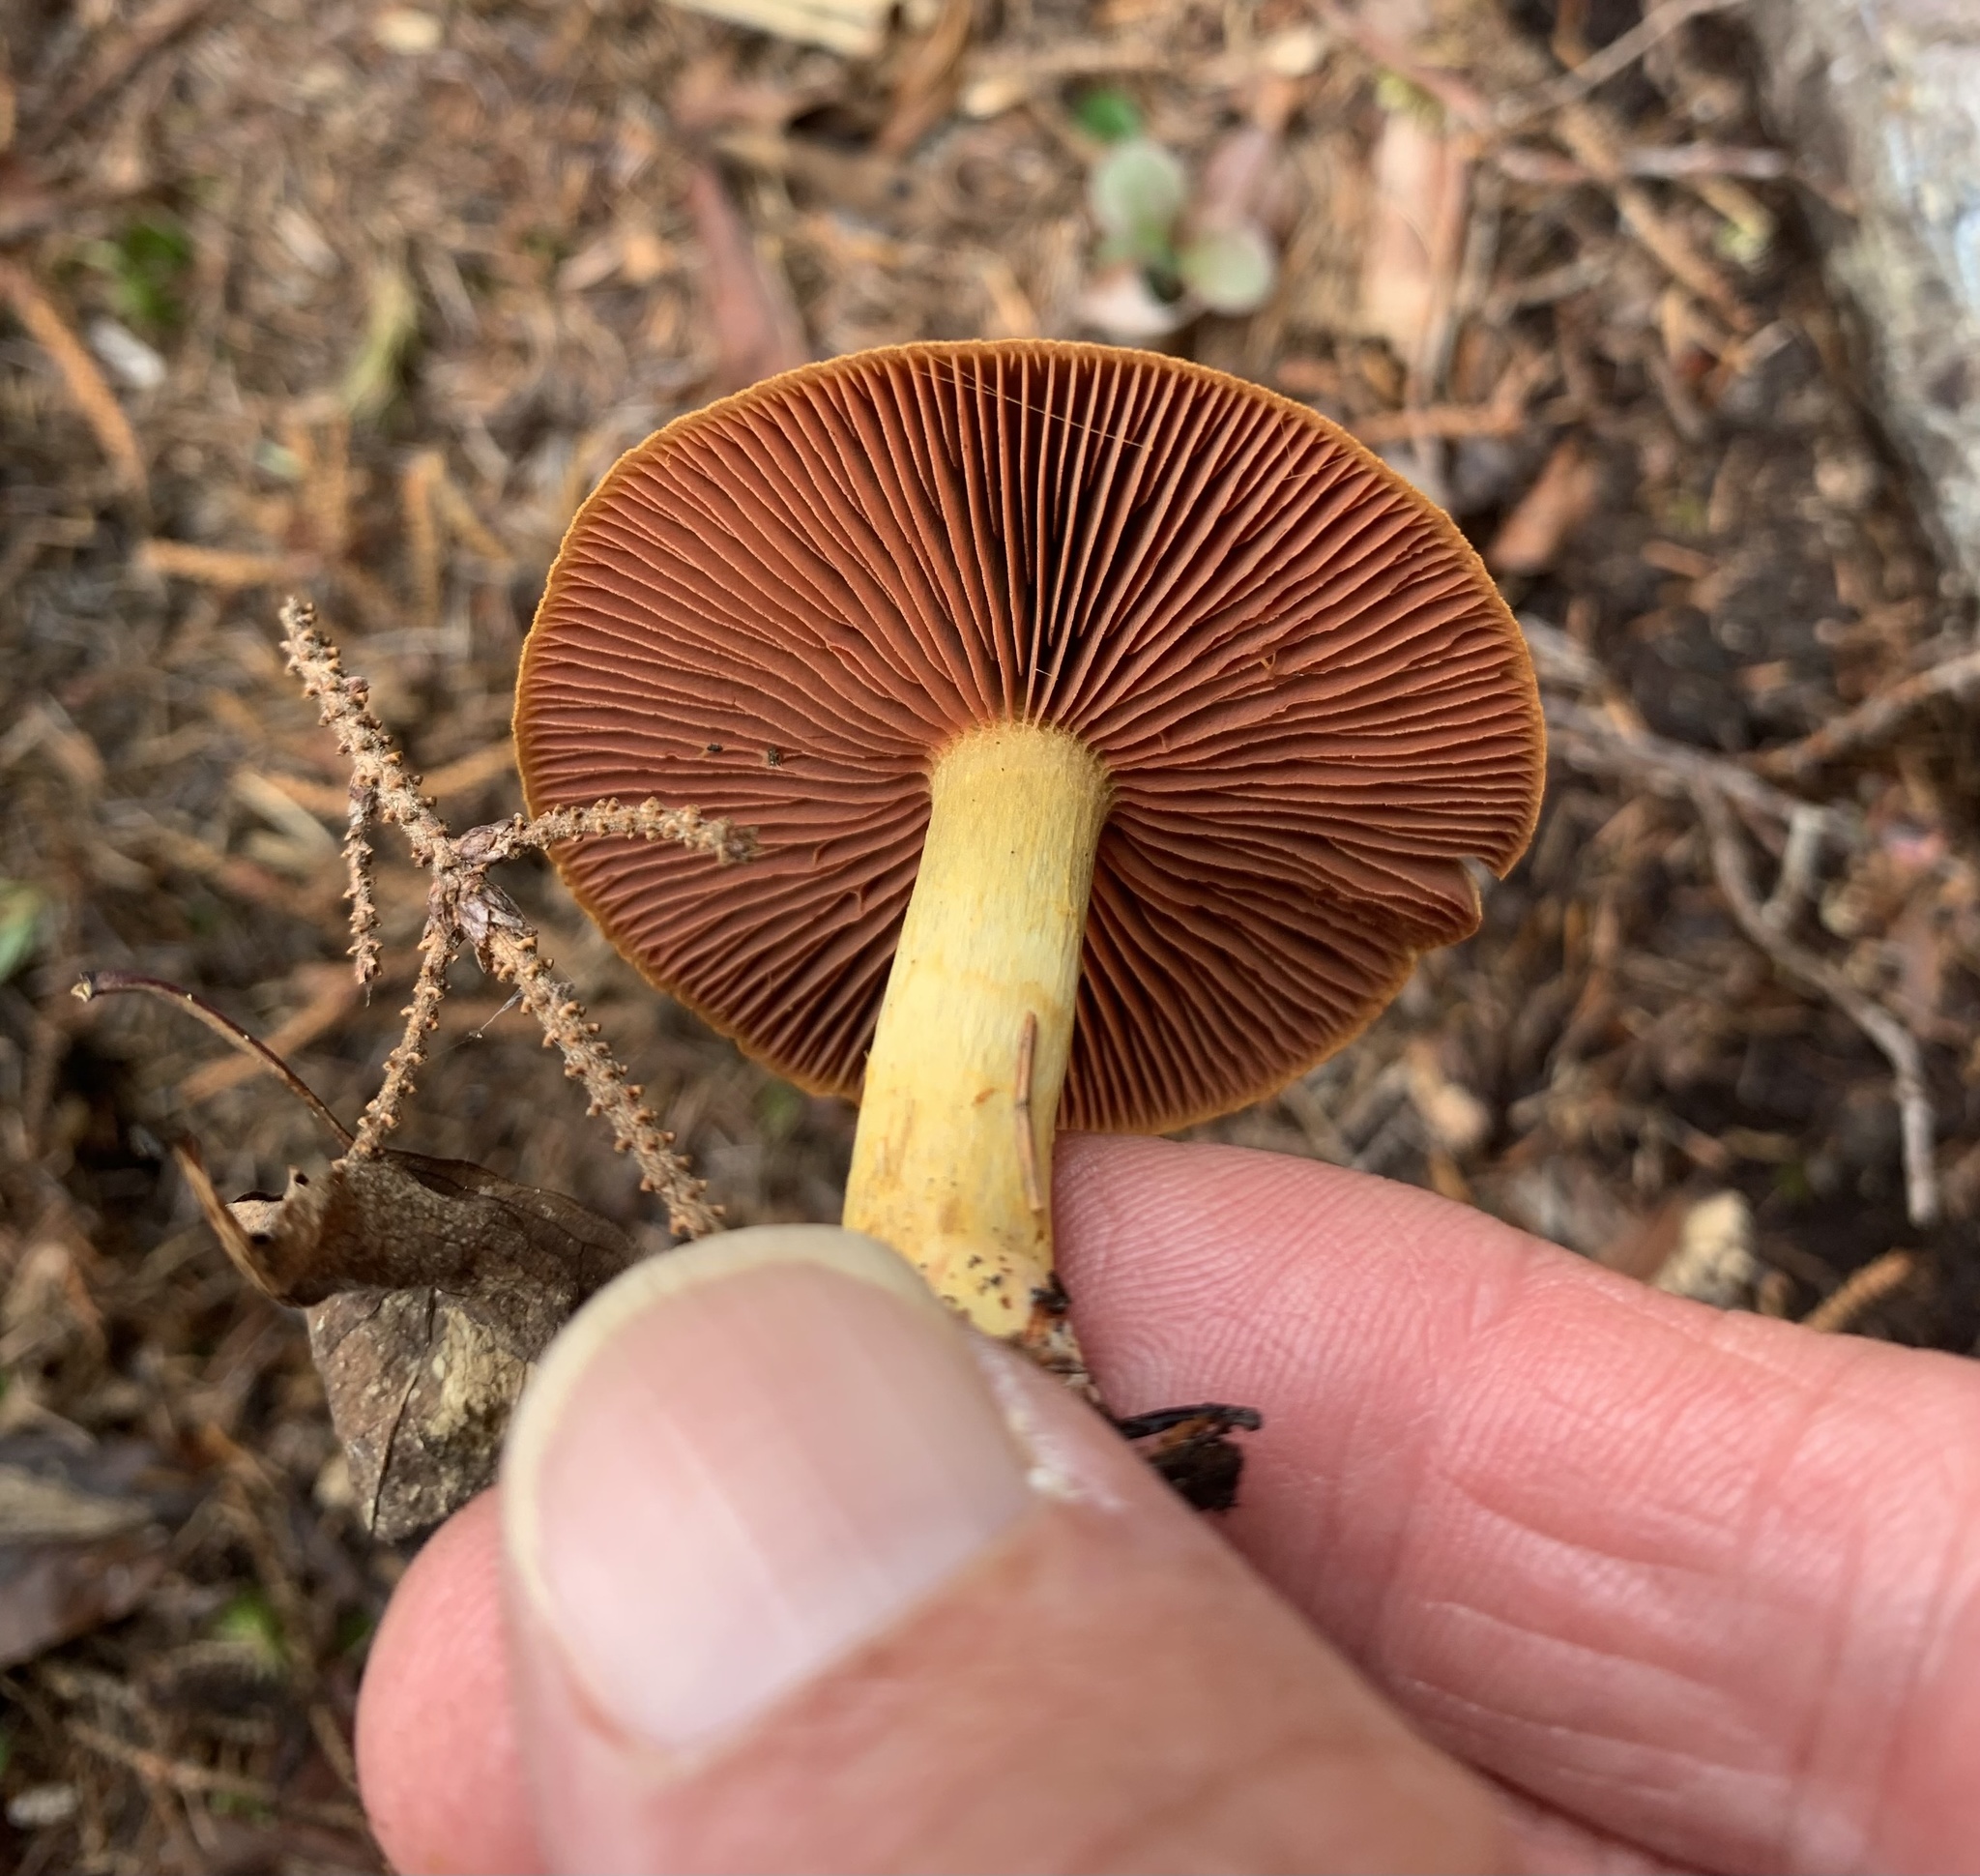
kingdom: Fungi
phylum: Basidiomycota
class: Agaricomycetes
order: Agaricales
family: Cortinariaceae
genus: Cortinarius
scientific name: Cortinarius semisanguineus
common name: Surprise webcap
